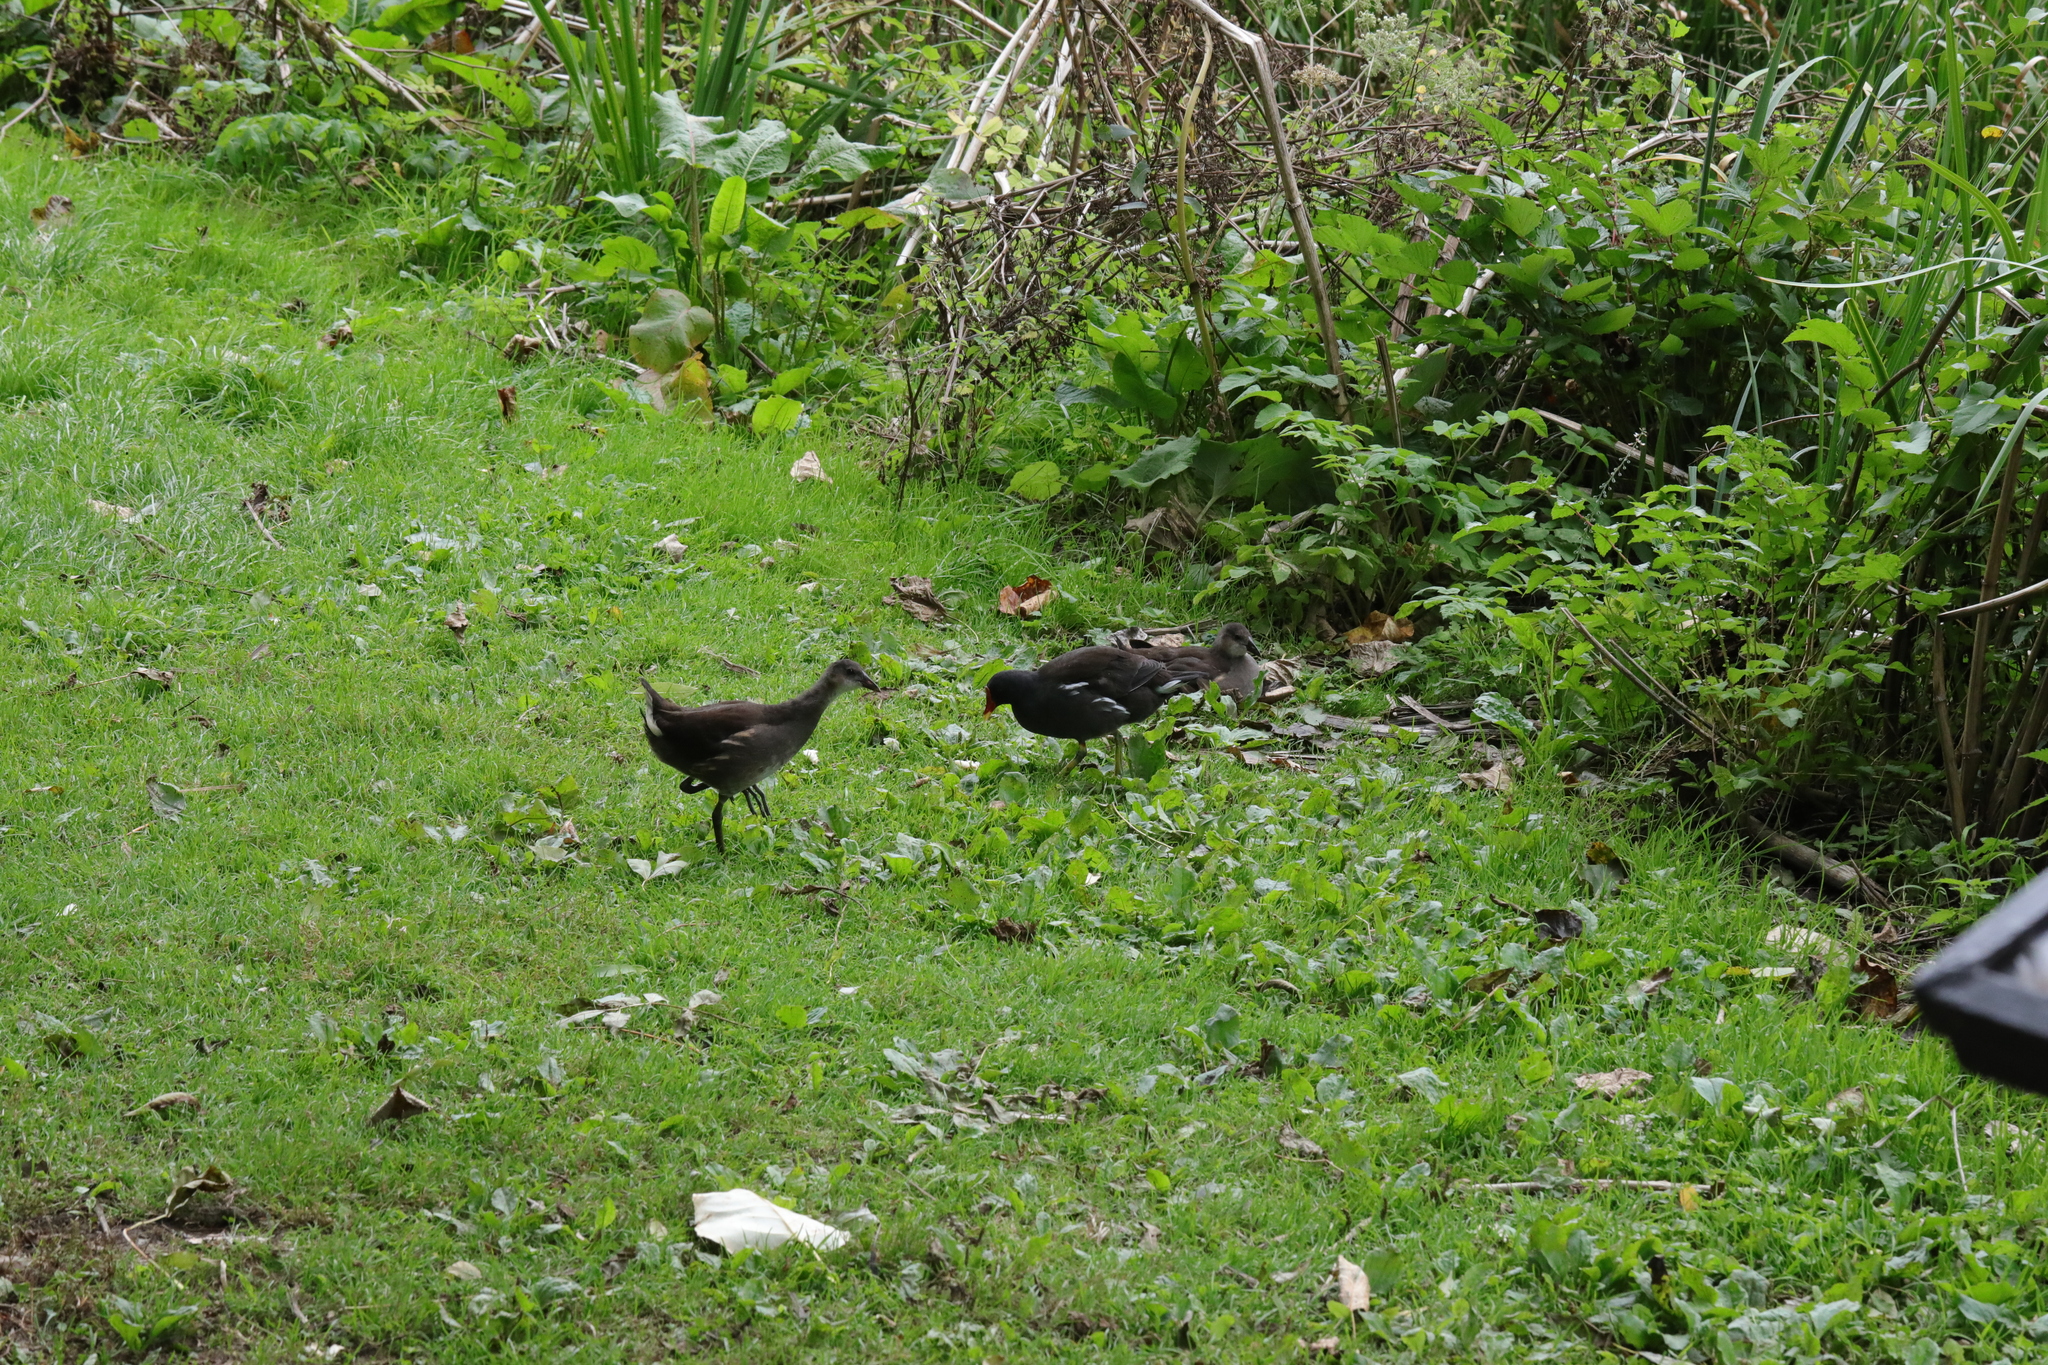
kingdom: Animalia
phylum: Chordata
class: Aves
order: Gruiformes
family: Rallidae
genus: Gallinula
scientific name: Gallinula chloropus
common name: Common moorhen
